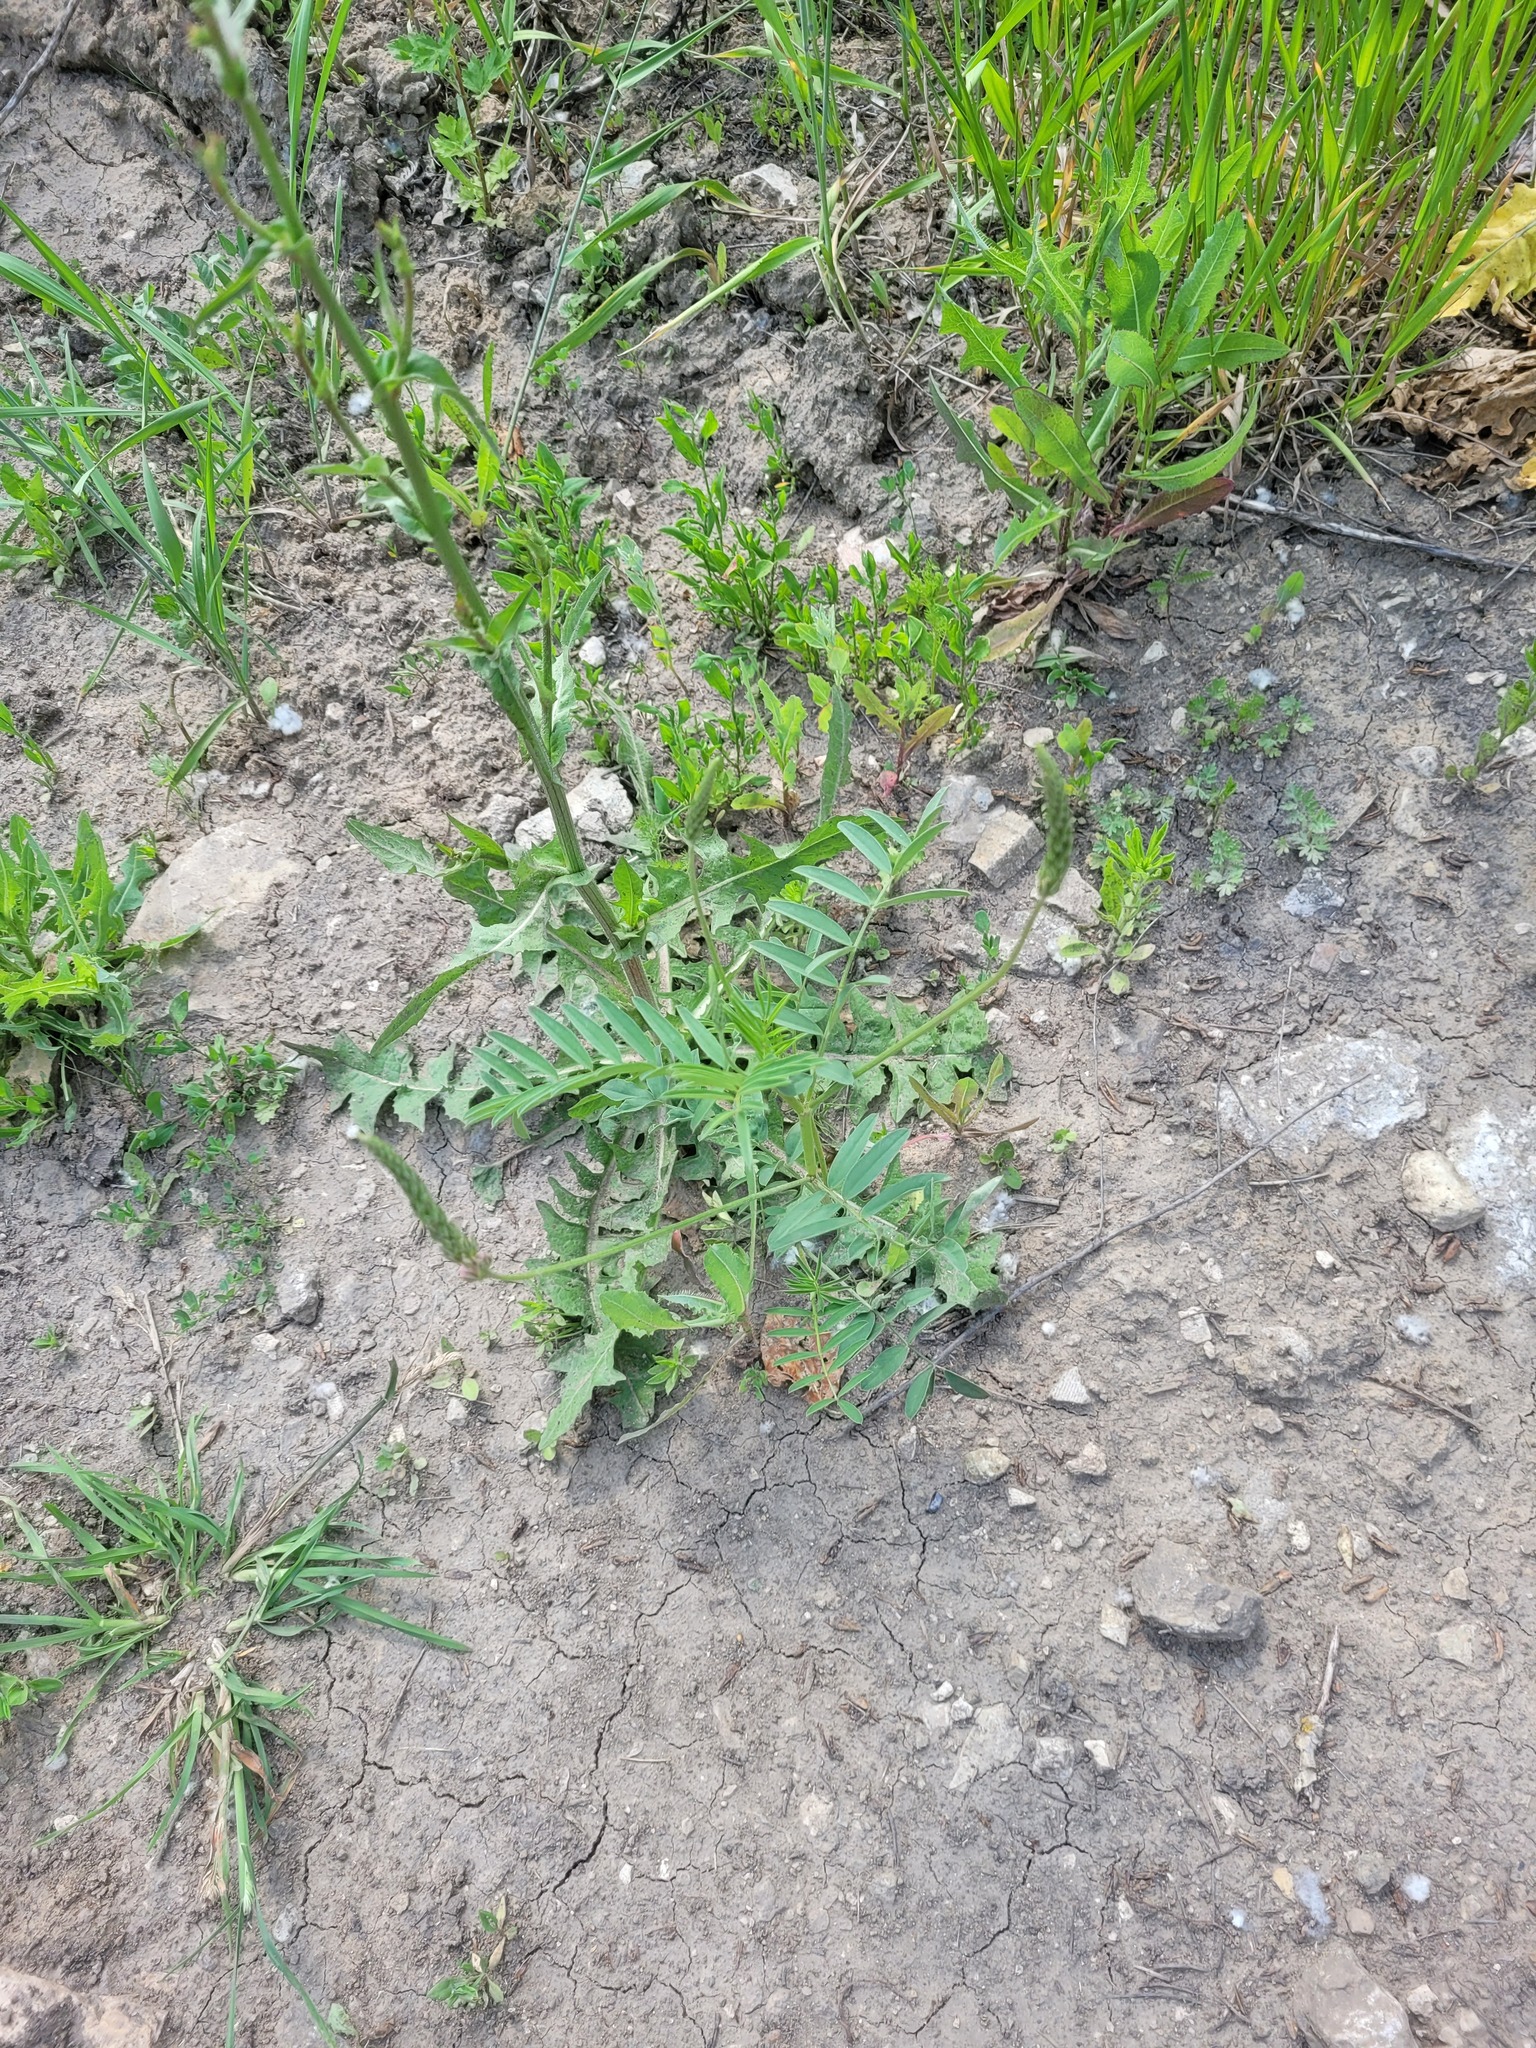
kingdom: Plantae
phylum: Tracheophyta
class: Magnoliopsida
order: Fabales
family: Fabaceae
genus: Onobrychis
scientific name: Onobrychis viciifolia
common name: Sainfoin
